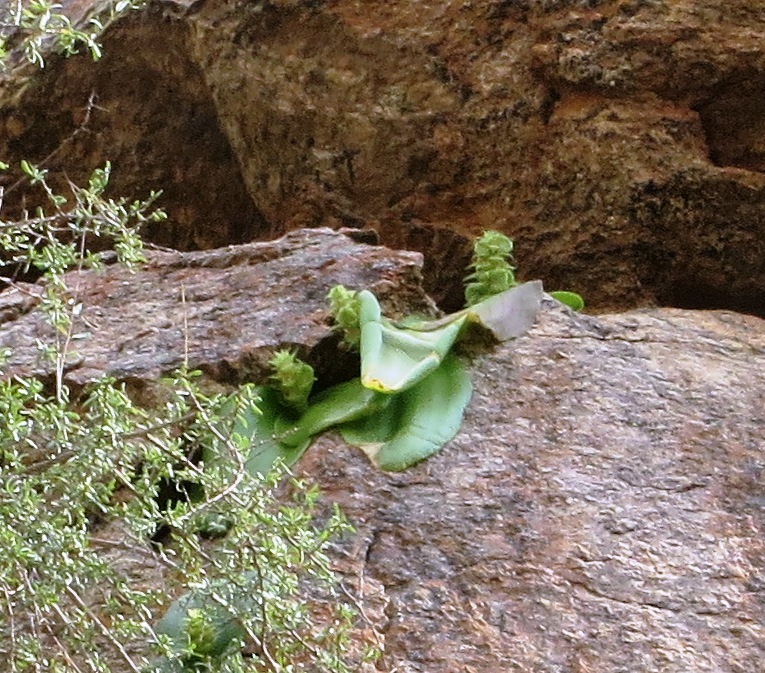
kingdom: Plantae
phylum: Tracheophyta
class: Liliopsida
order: Asparagales
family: Asparagaceae
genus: Massonia
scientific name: Massonia bifolia
